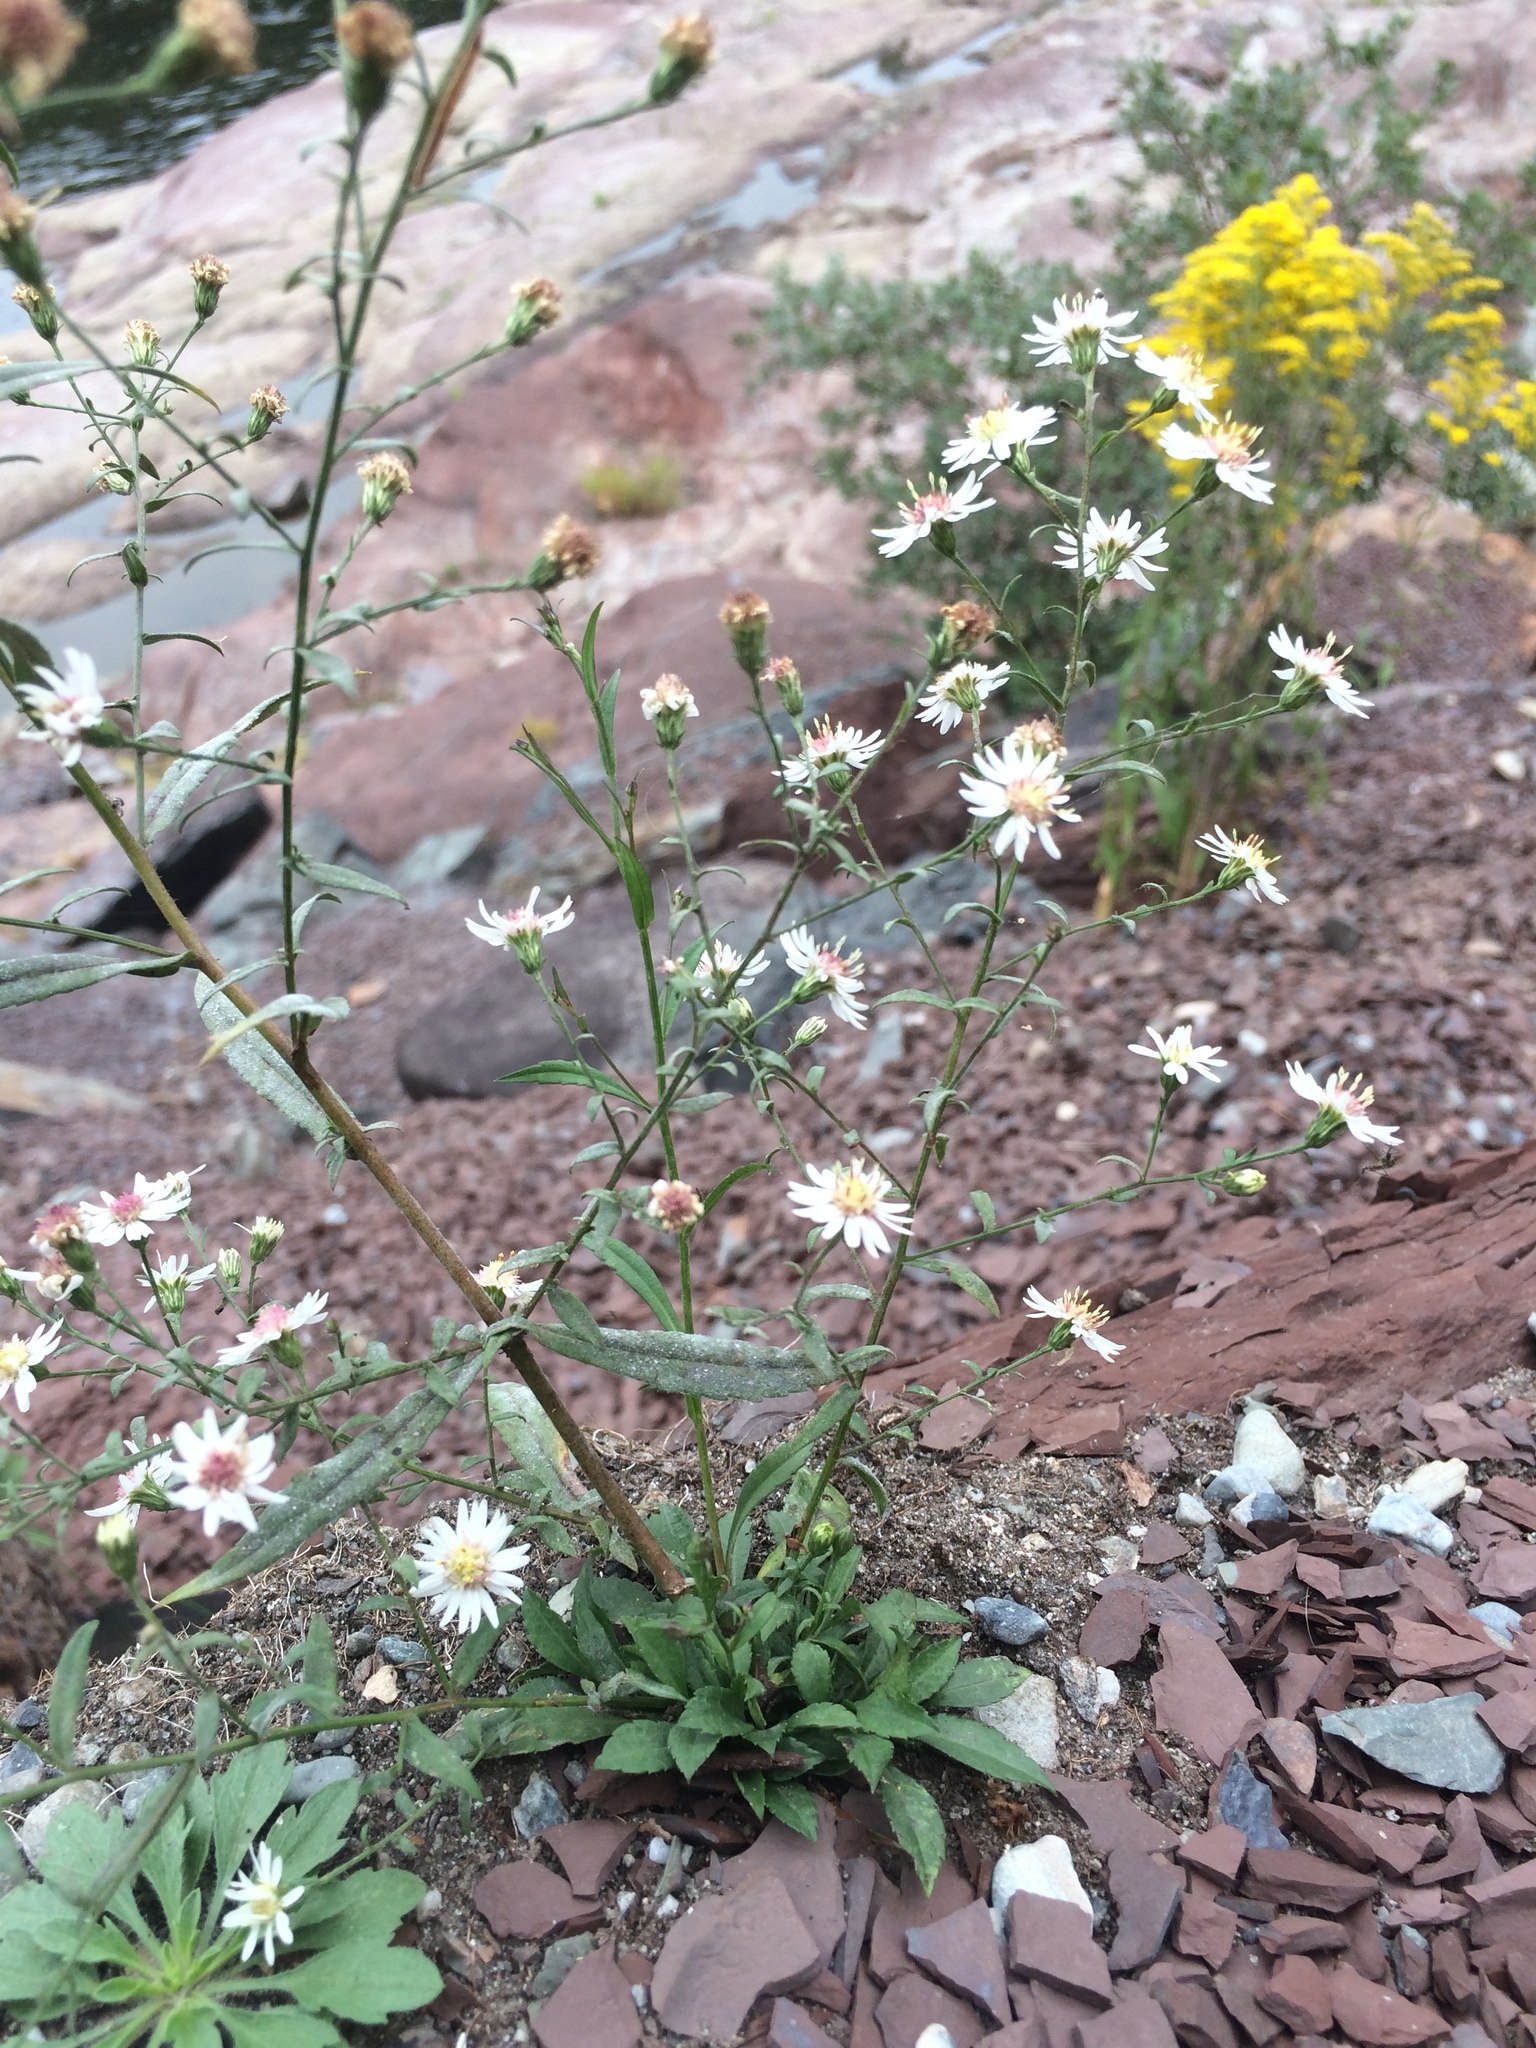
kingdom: Plantae
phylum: Tracheophyta
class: Magnoliopsida
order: Asterales
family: Asteraceae
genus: Symphyotrichum
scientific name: Symphyotrichum tradescantii
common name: Shore aster
